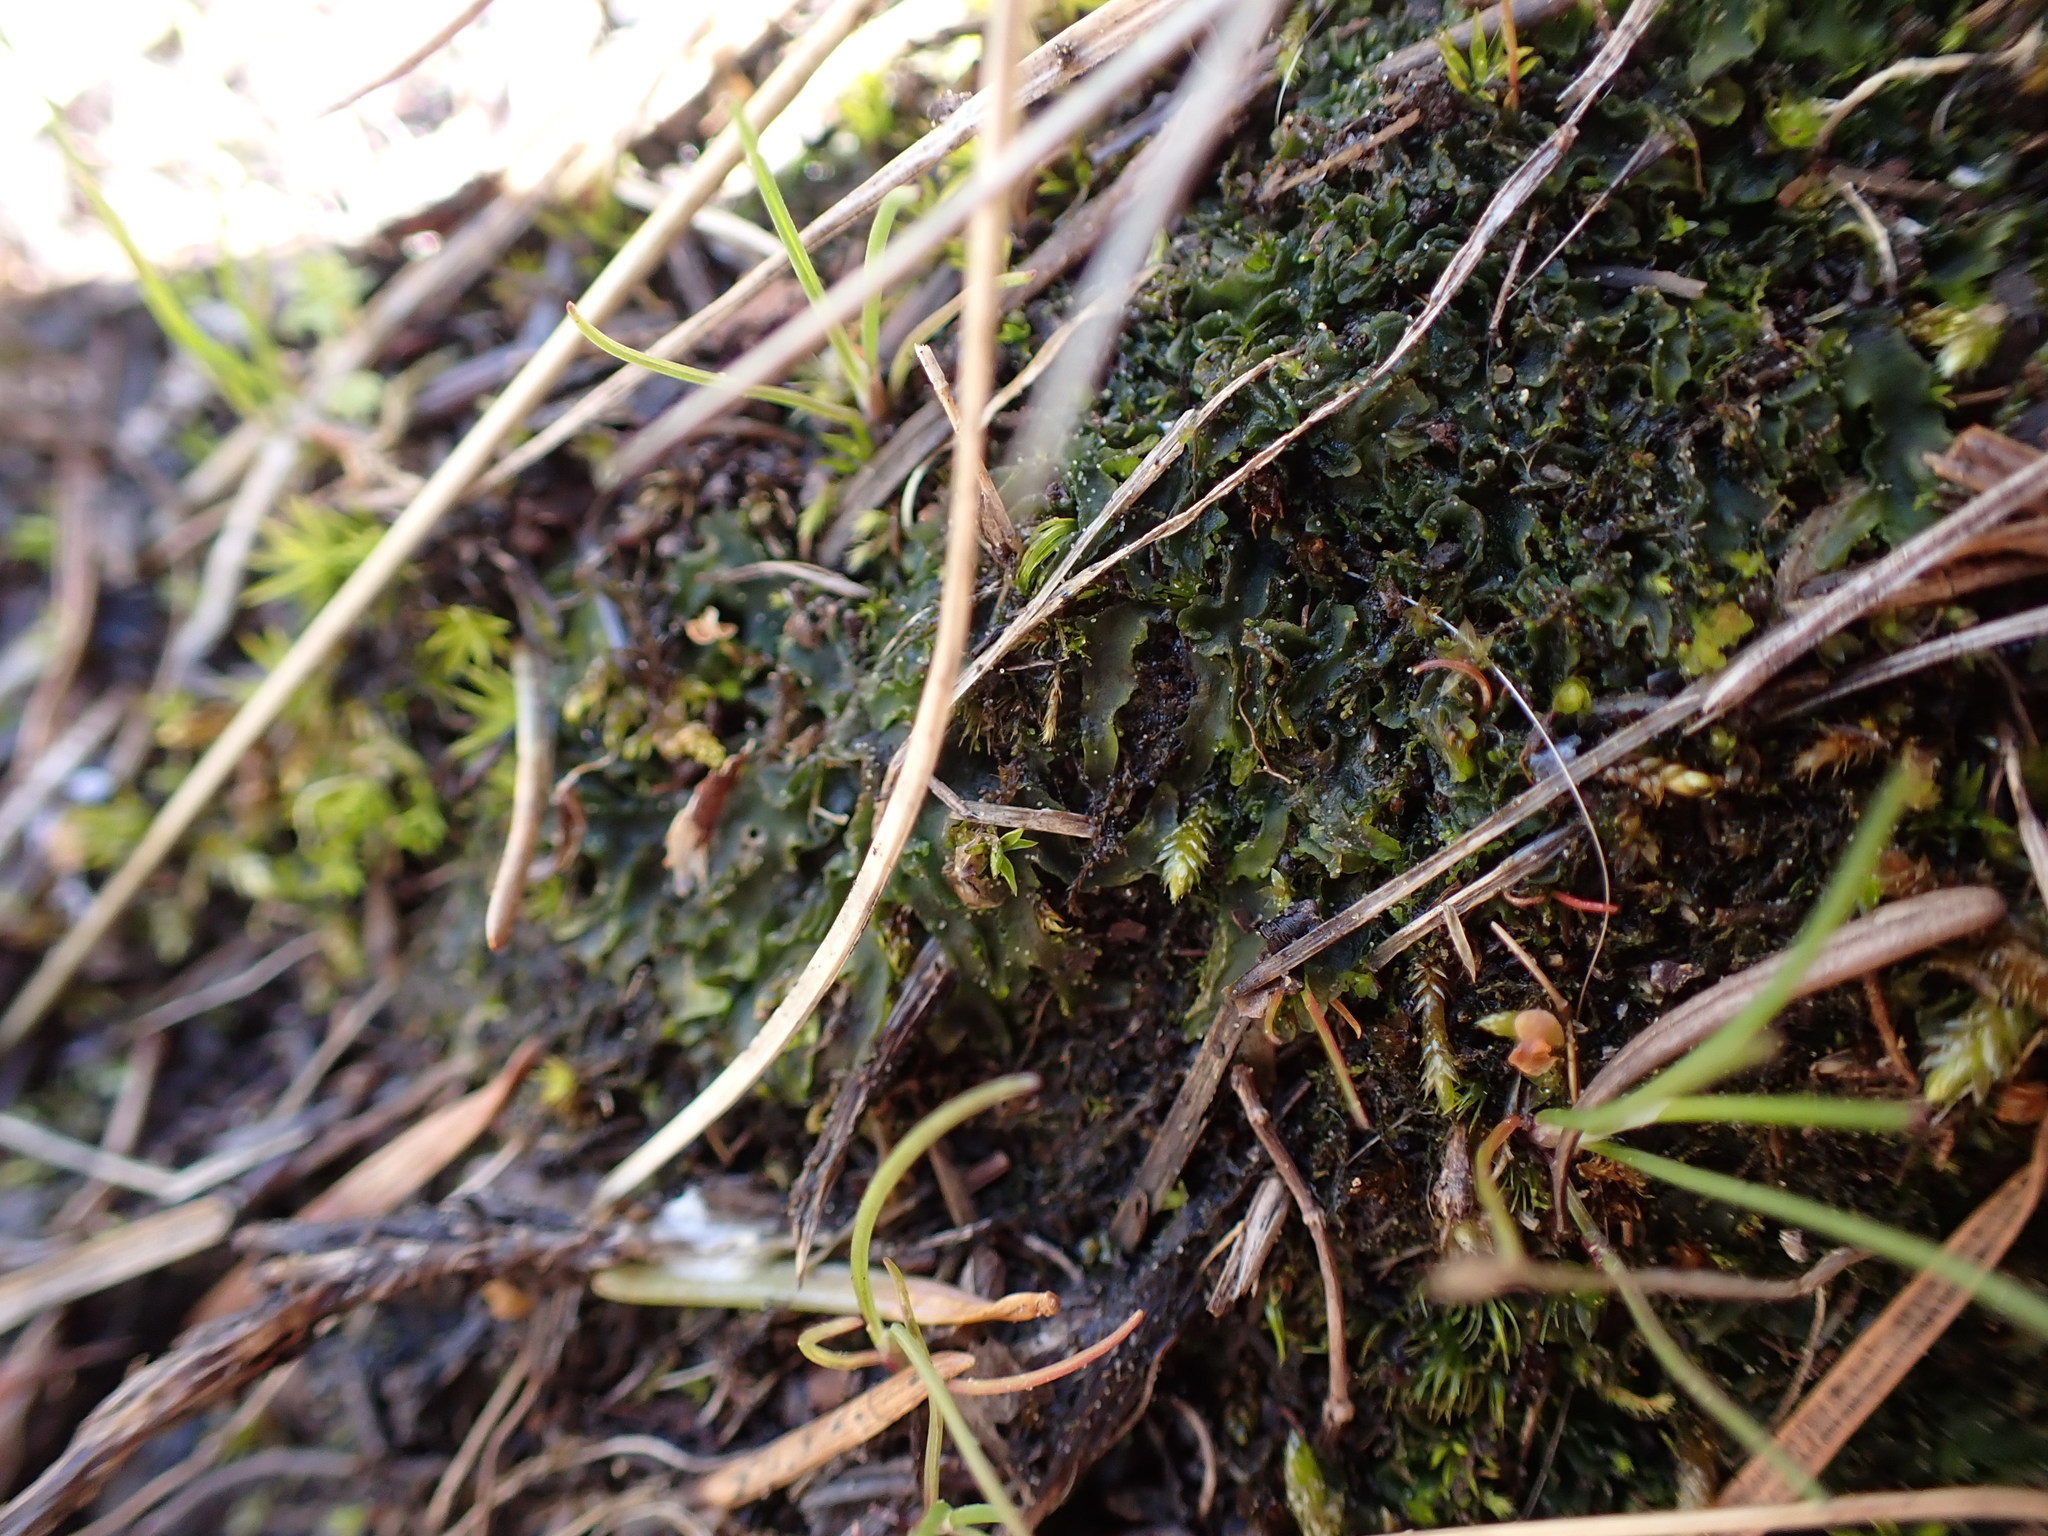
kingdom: Plantae
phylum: Anthocerotophyta
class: Anthocerotopsida
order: Phymatocerotales
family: Phymatocerotaceae
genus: Phymatoceros
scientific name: Phymatoceros bulbiculosus
